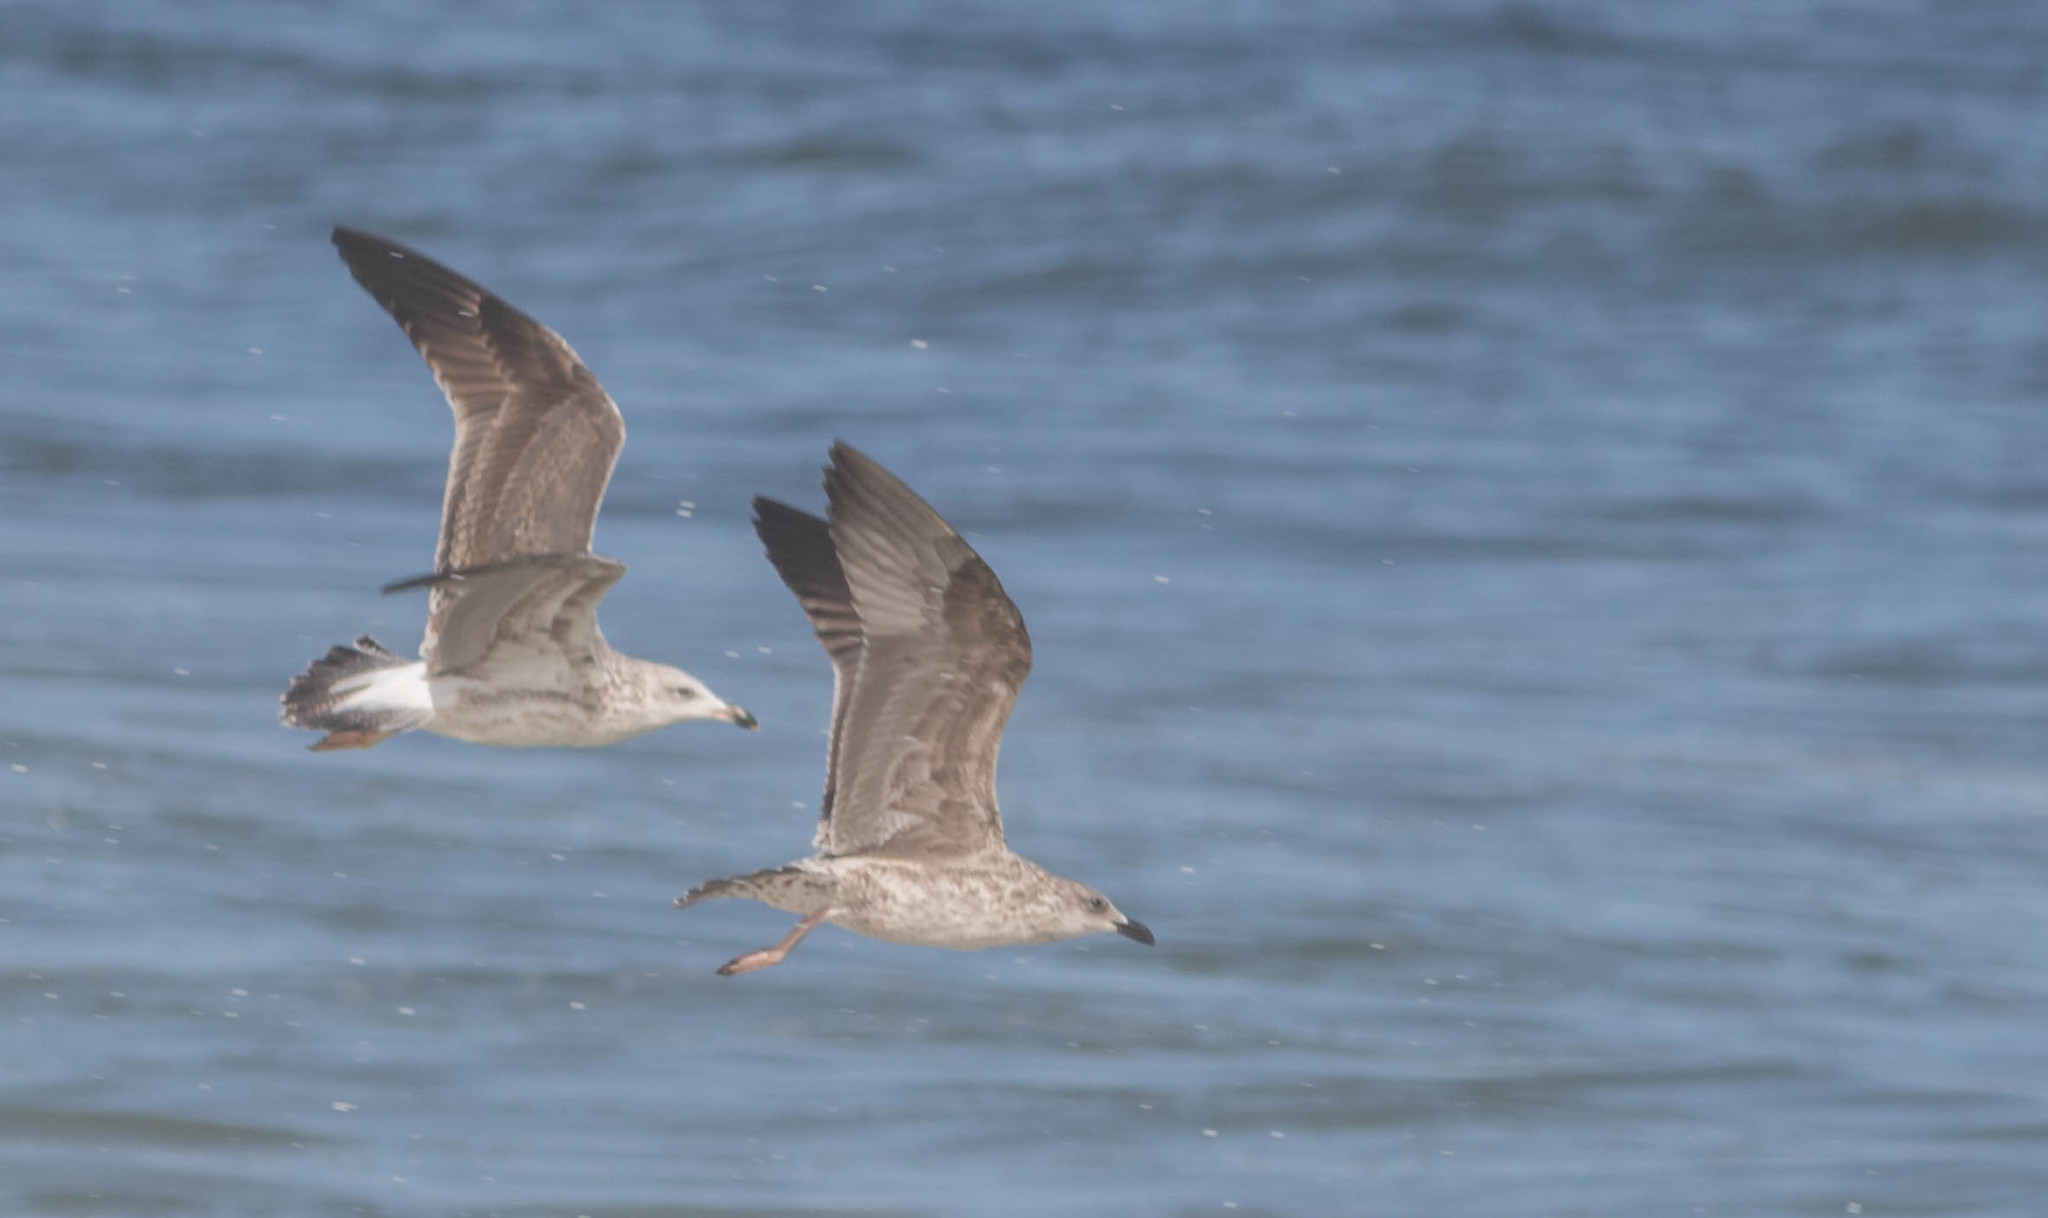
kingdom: Animalia
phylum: Chordata
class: Aves
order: Charadriiformes
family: Laridae
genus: Larus
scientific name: Larus fuscus
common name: Lesser black-backed gull
